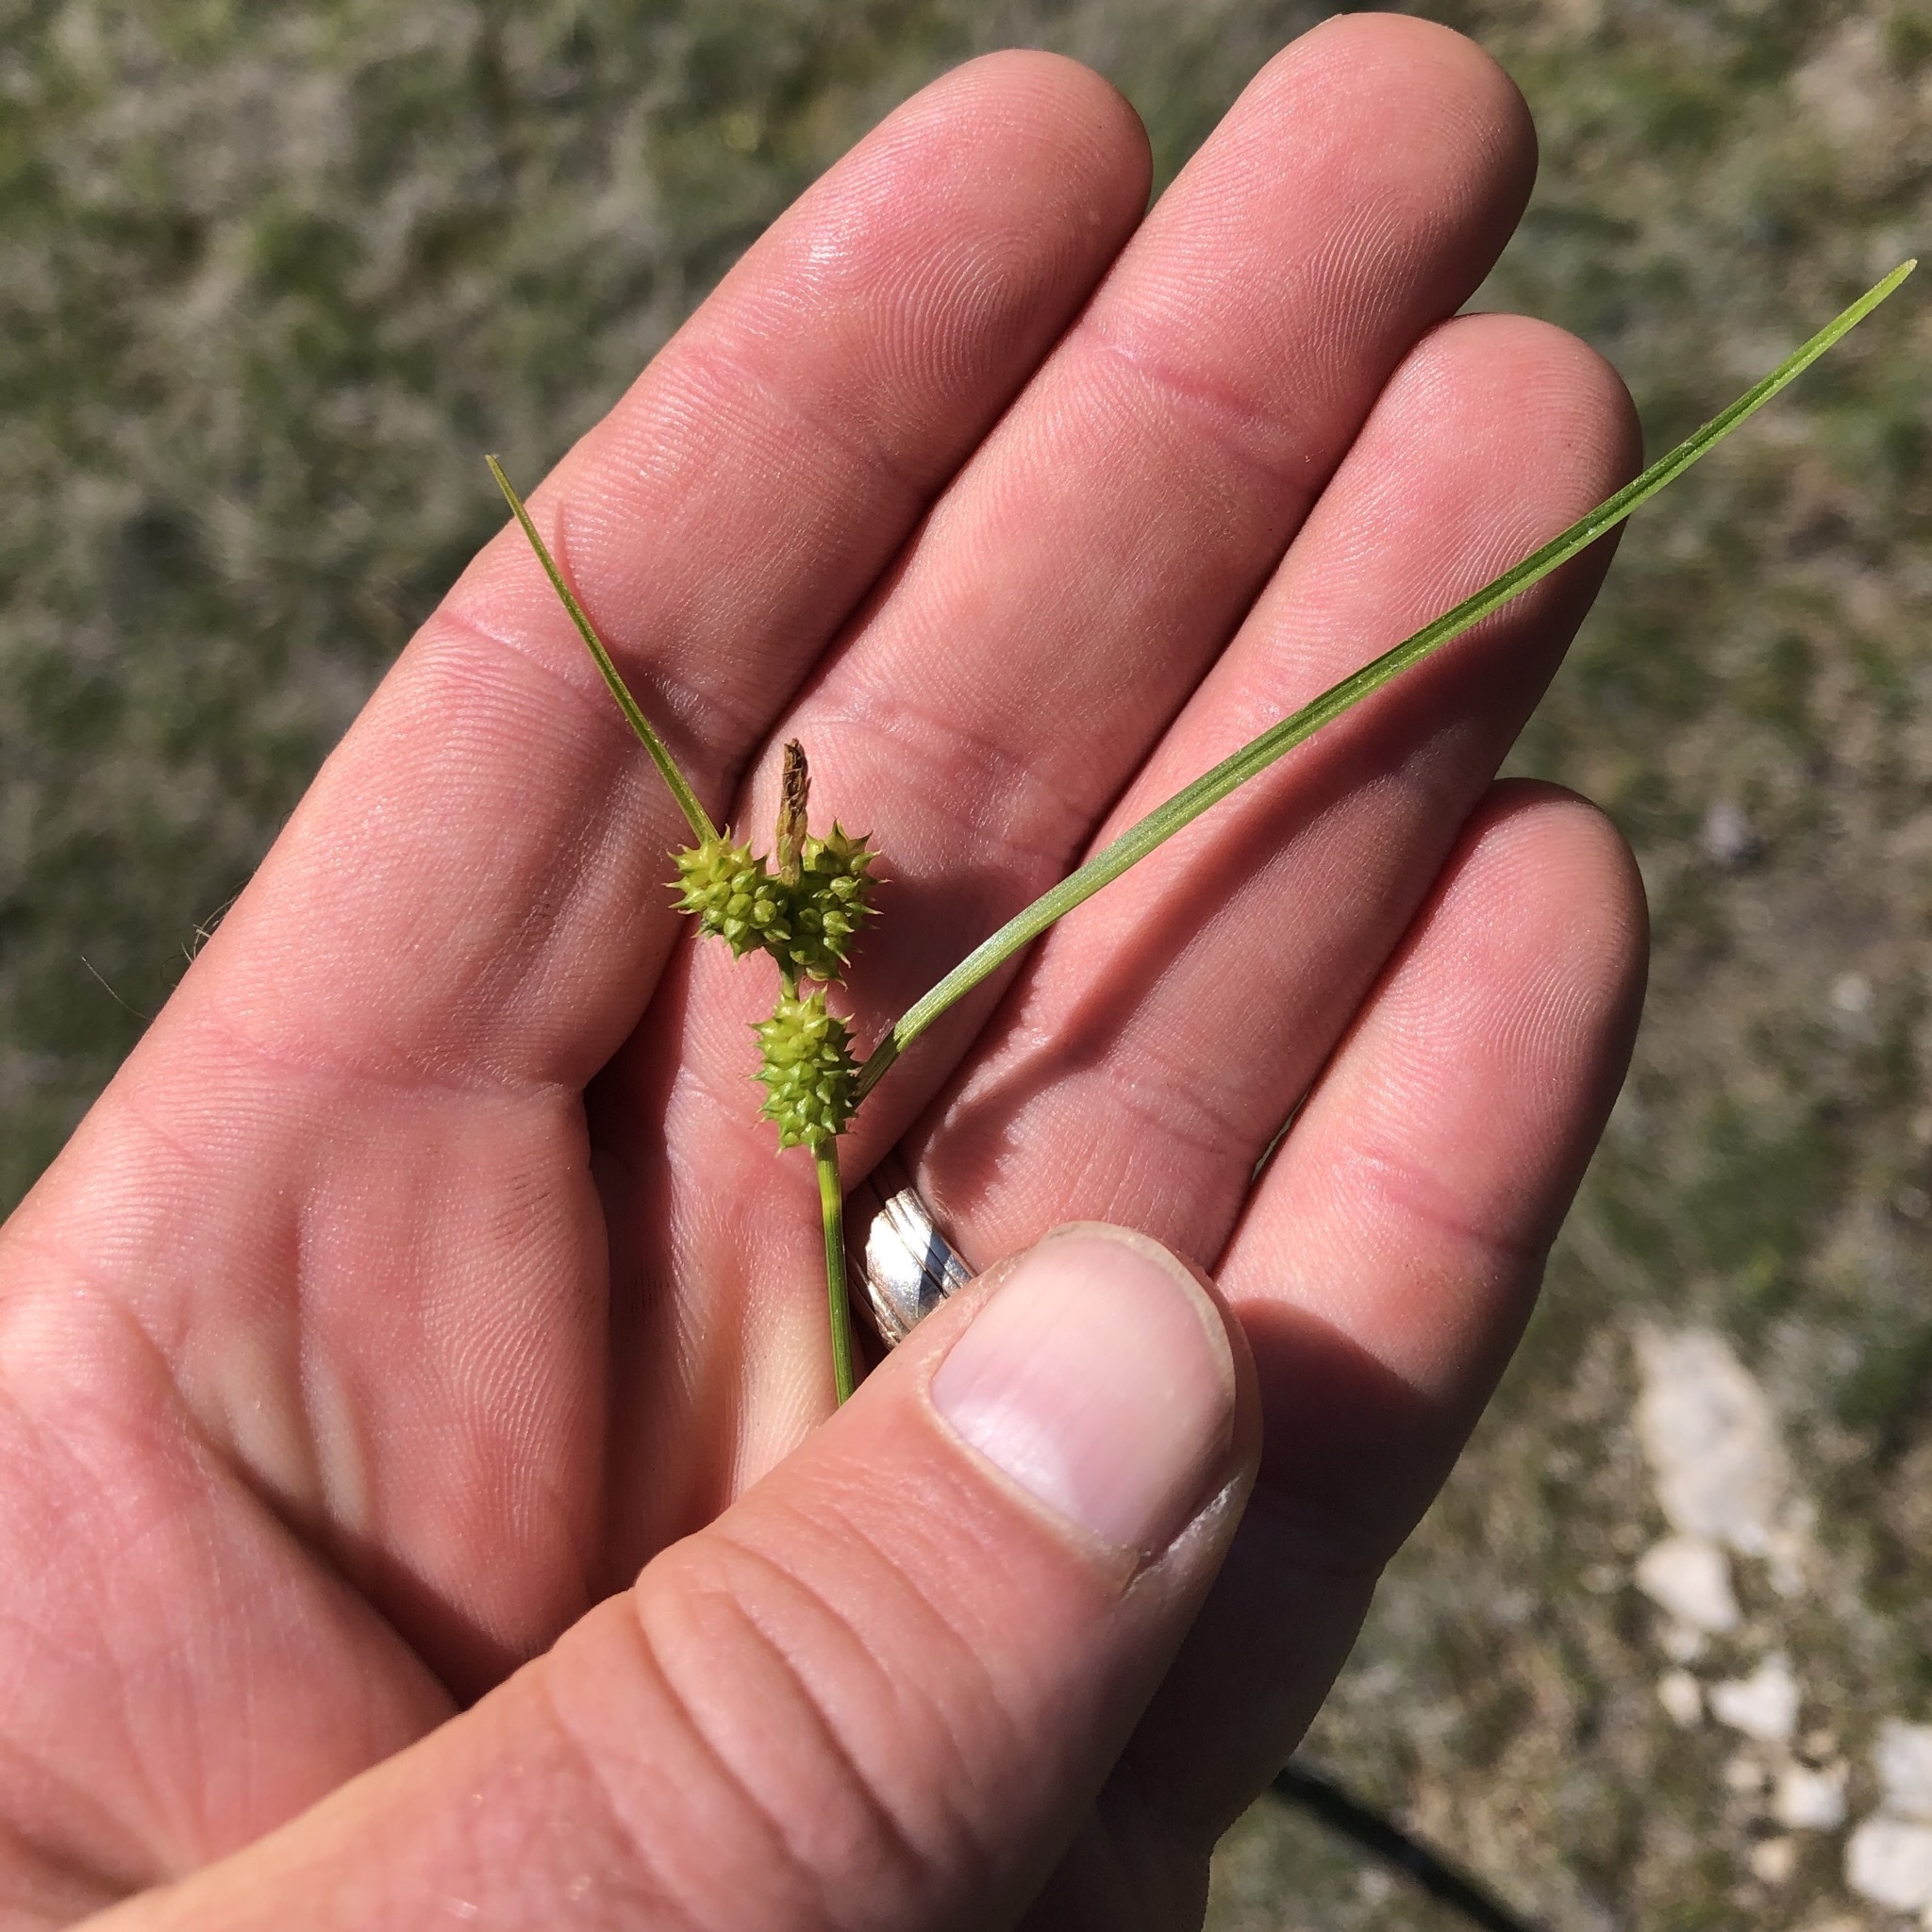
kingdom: Plantae
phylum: Tracheophyta
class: Liliopsida
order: Poales
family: Cyperaceae
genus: Carex
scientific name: Carex
